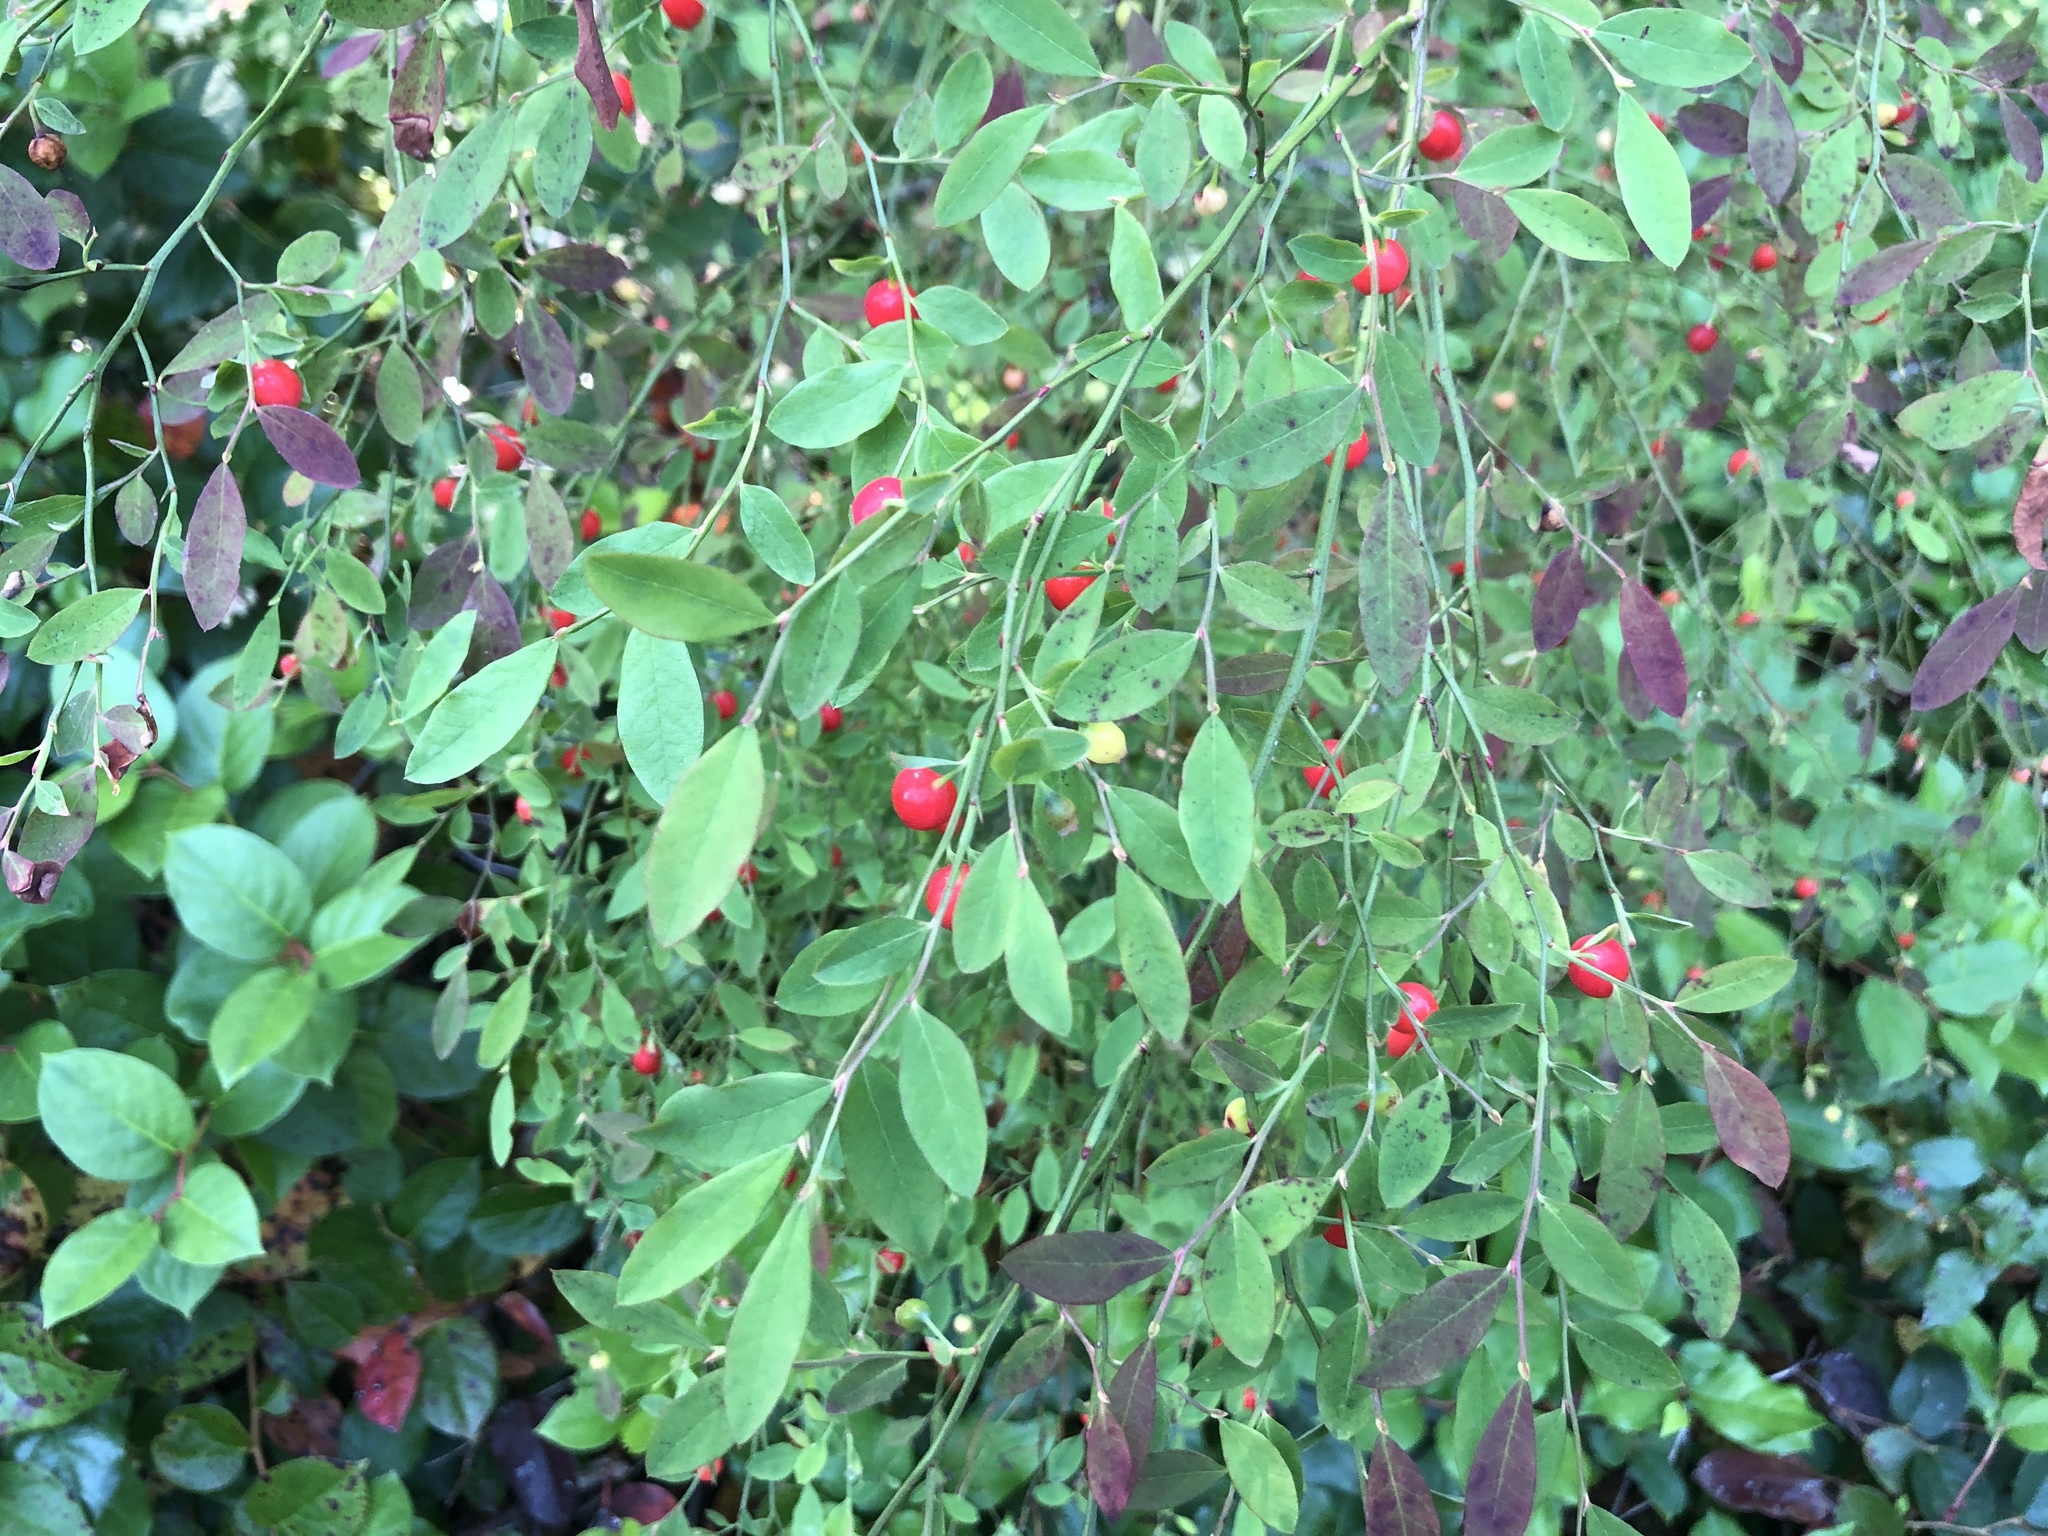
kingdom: Plantae
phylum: Tracheophyta
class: Magnoliopsida
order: Ericales
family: Ericaceae
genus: Vaccinium
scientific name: Vaccinium parvifolium
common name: Red-huckleberry
